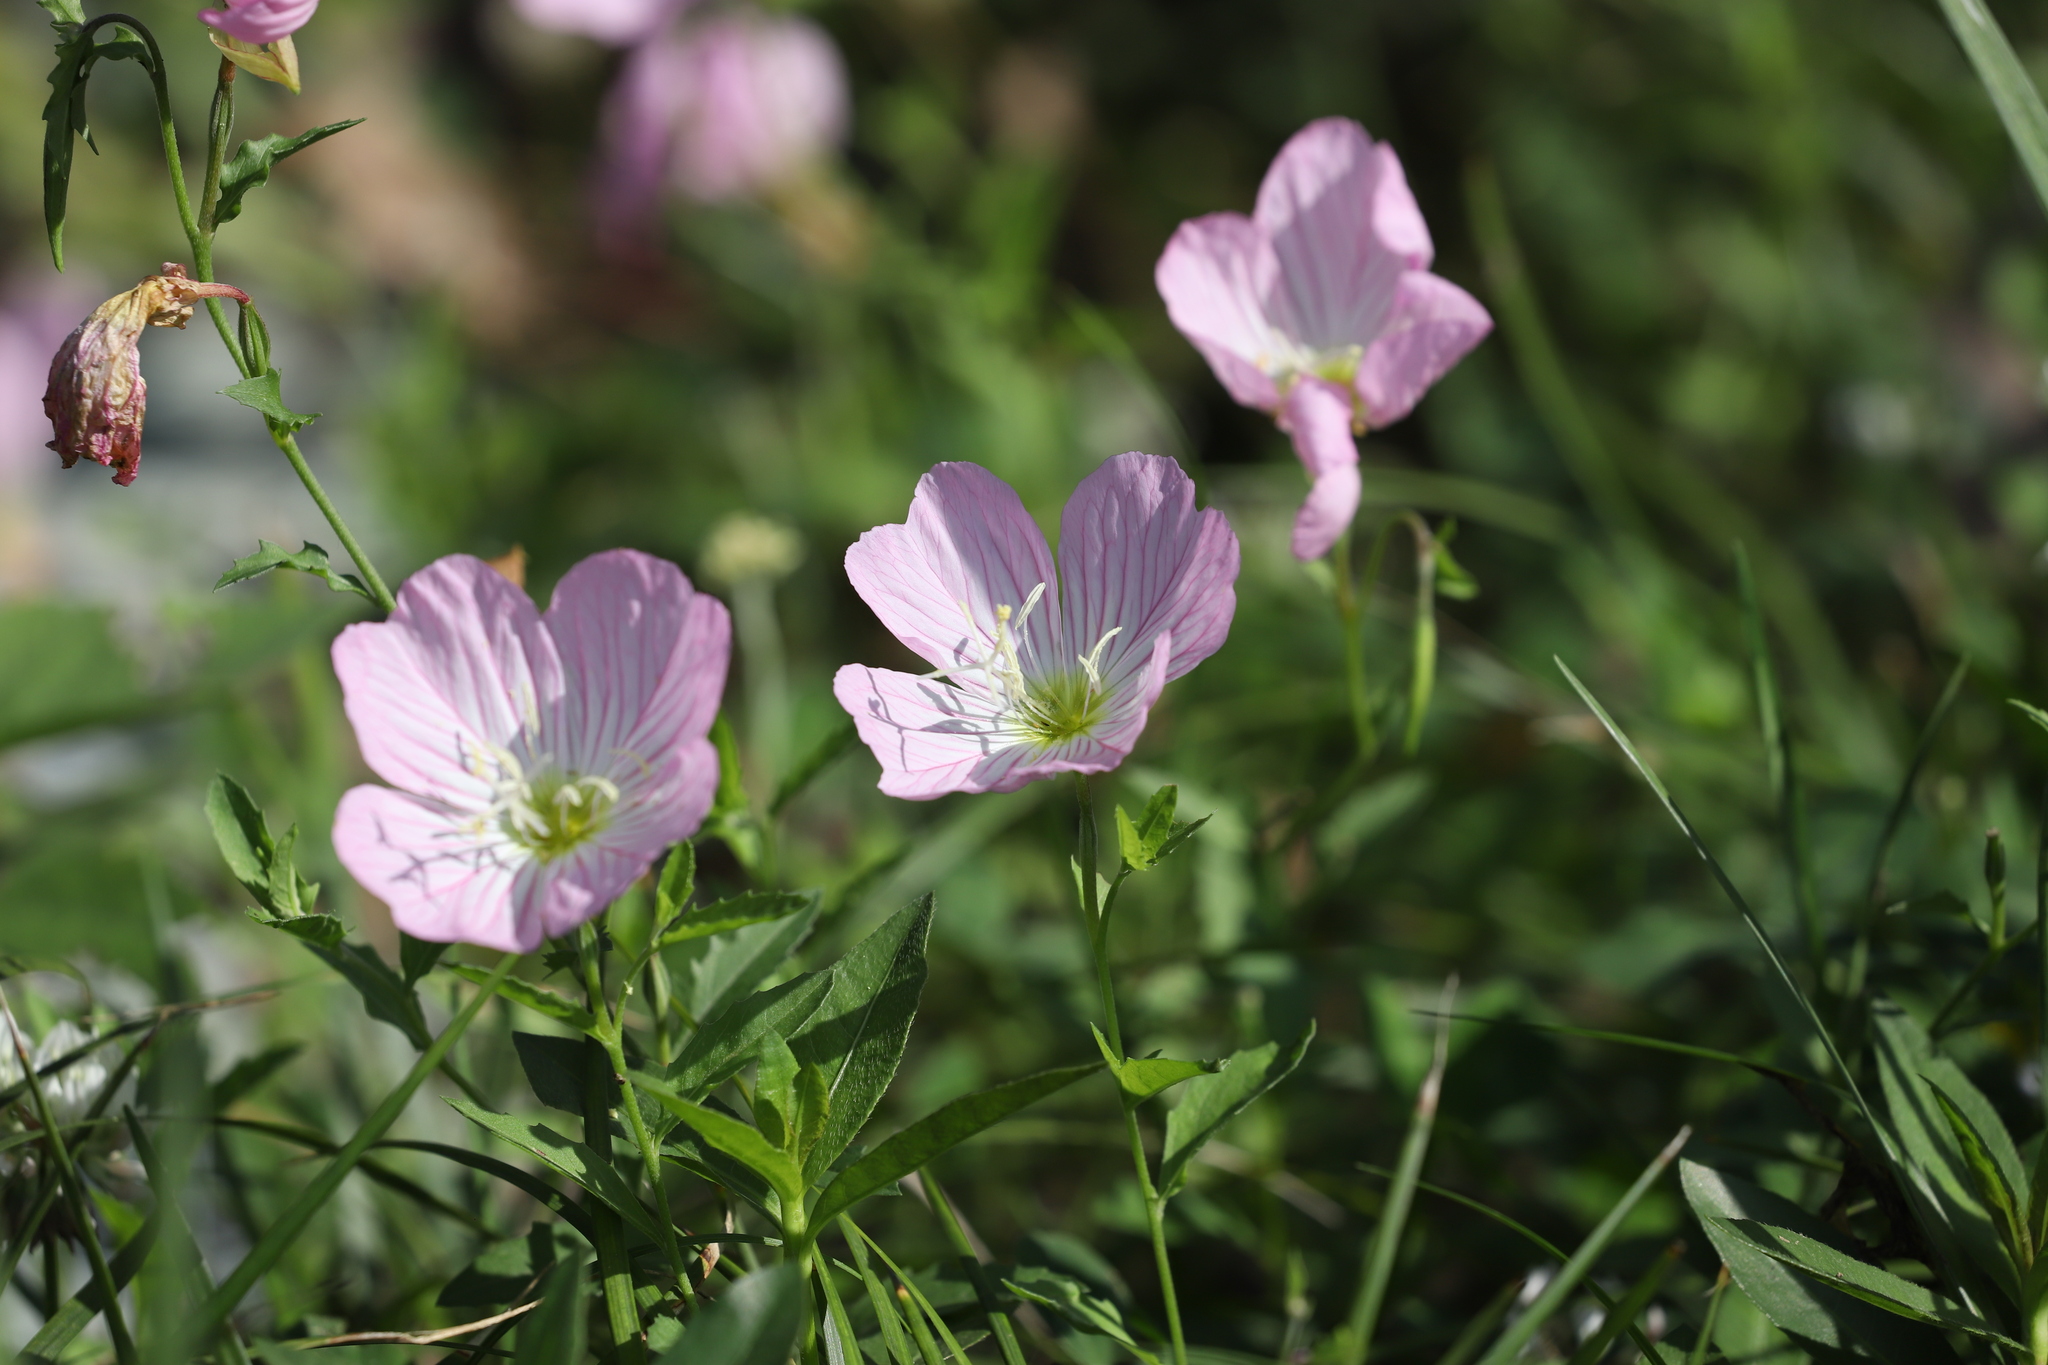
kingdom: Plantae
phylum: Tracheophyta
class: Magnoliopsida
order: Myrtales
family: Onagraceae
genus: Oenothera
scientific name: Oenothera speciosa
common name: White evening-primrose
